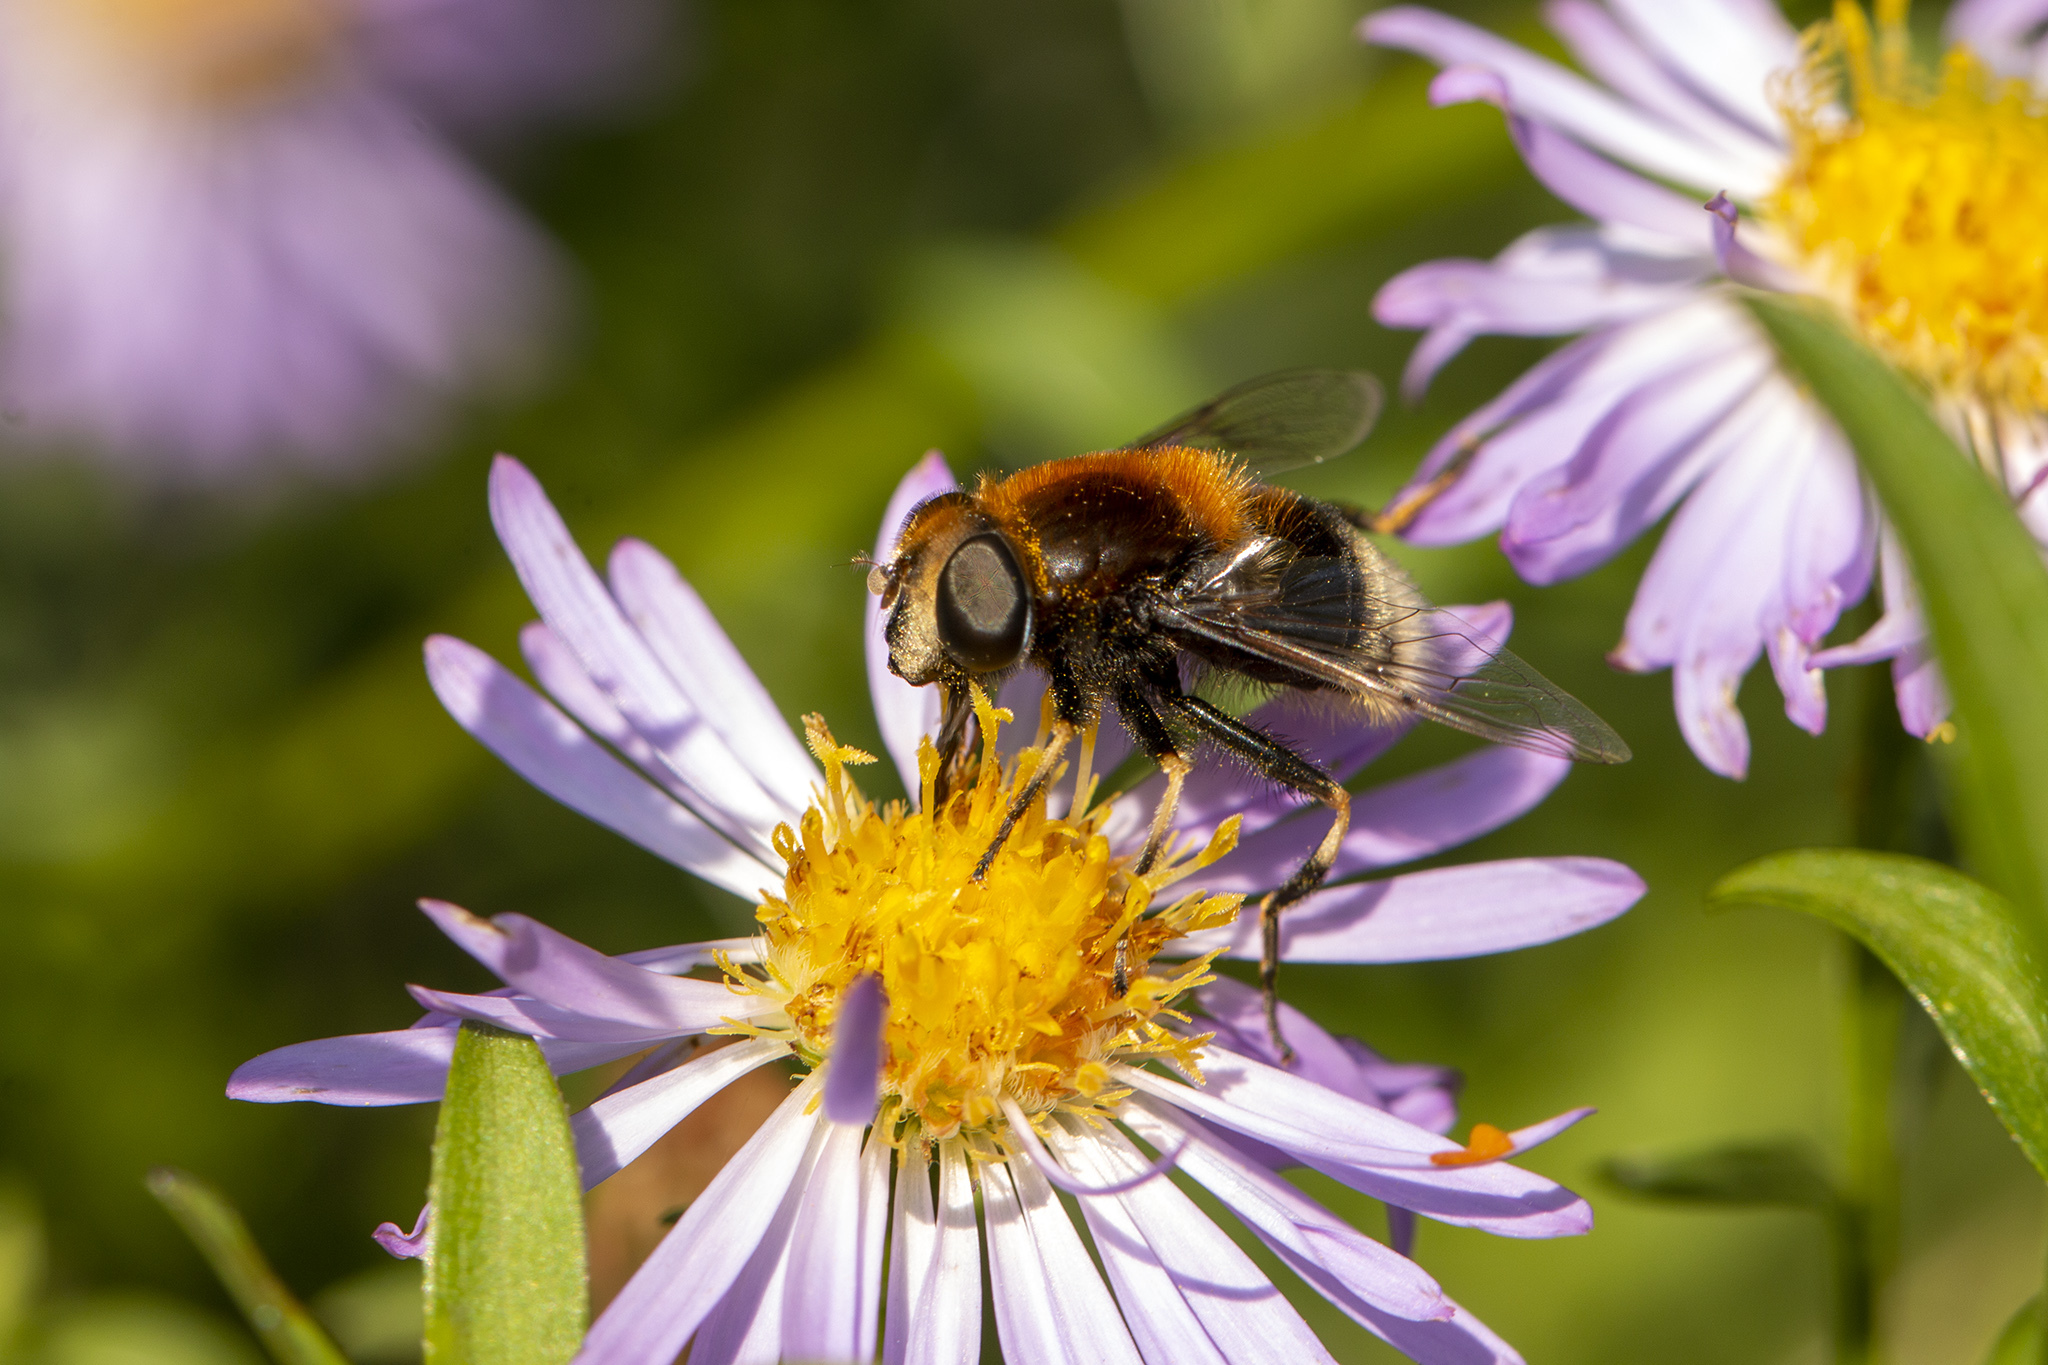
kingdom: Animalia
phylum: Arthropoda
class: Insecta
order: Diptera
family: Syrphidae
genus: Eristalis
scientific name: Eristalis intricaria
